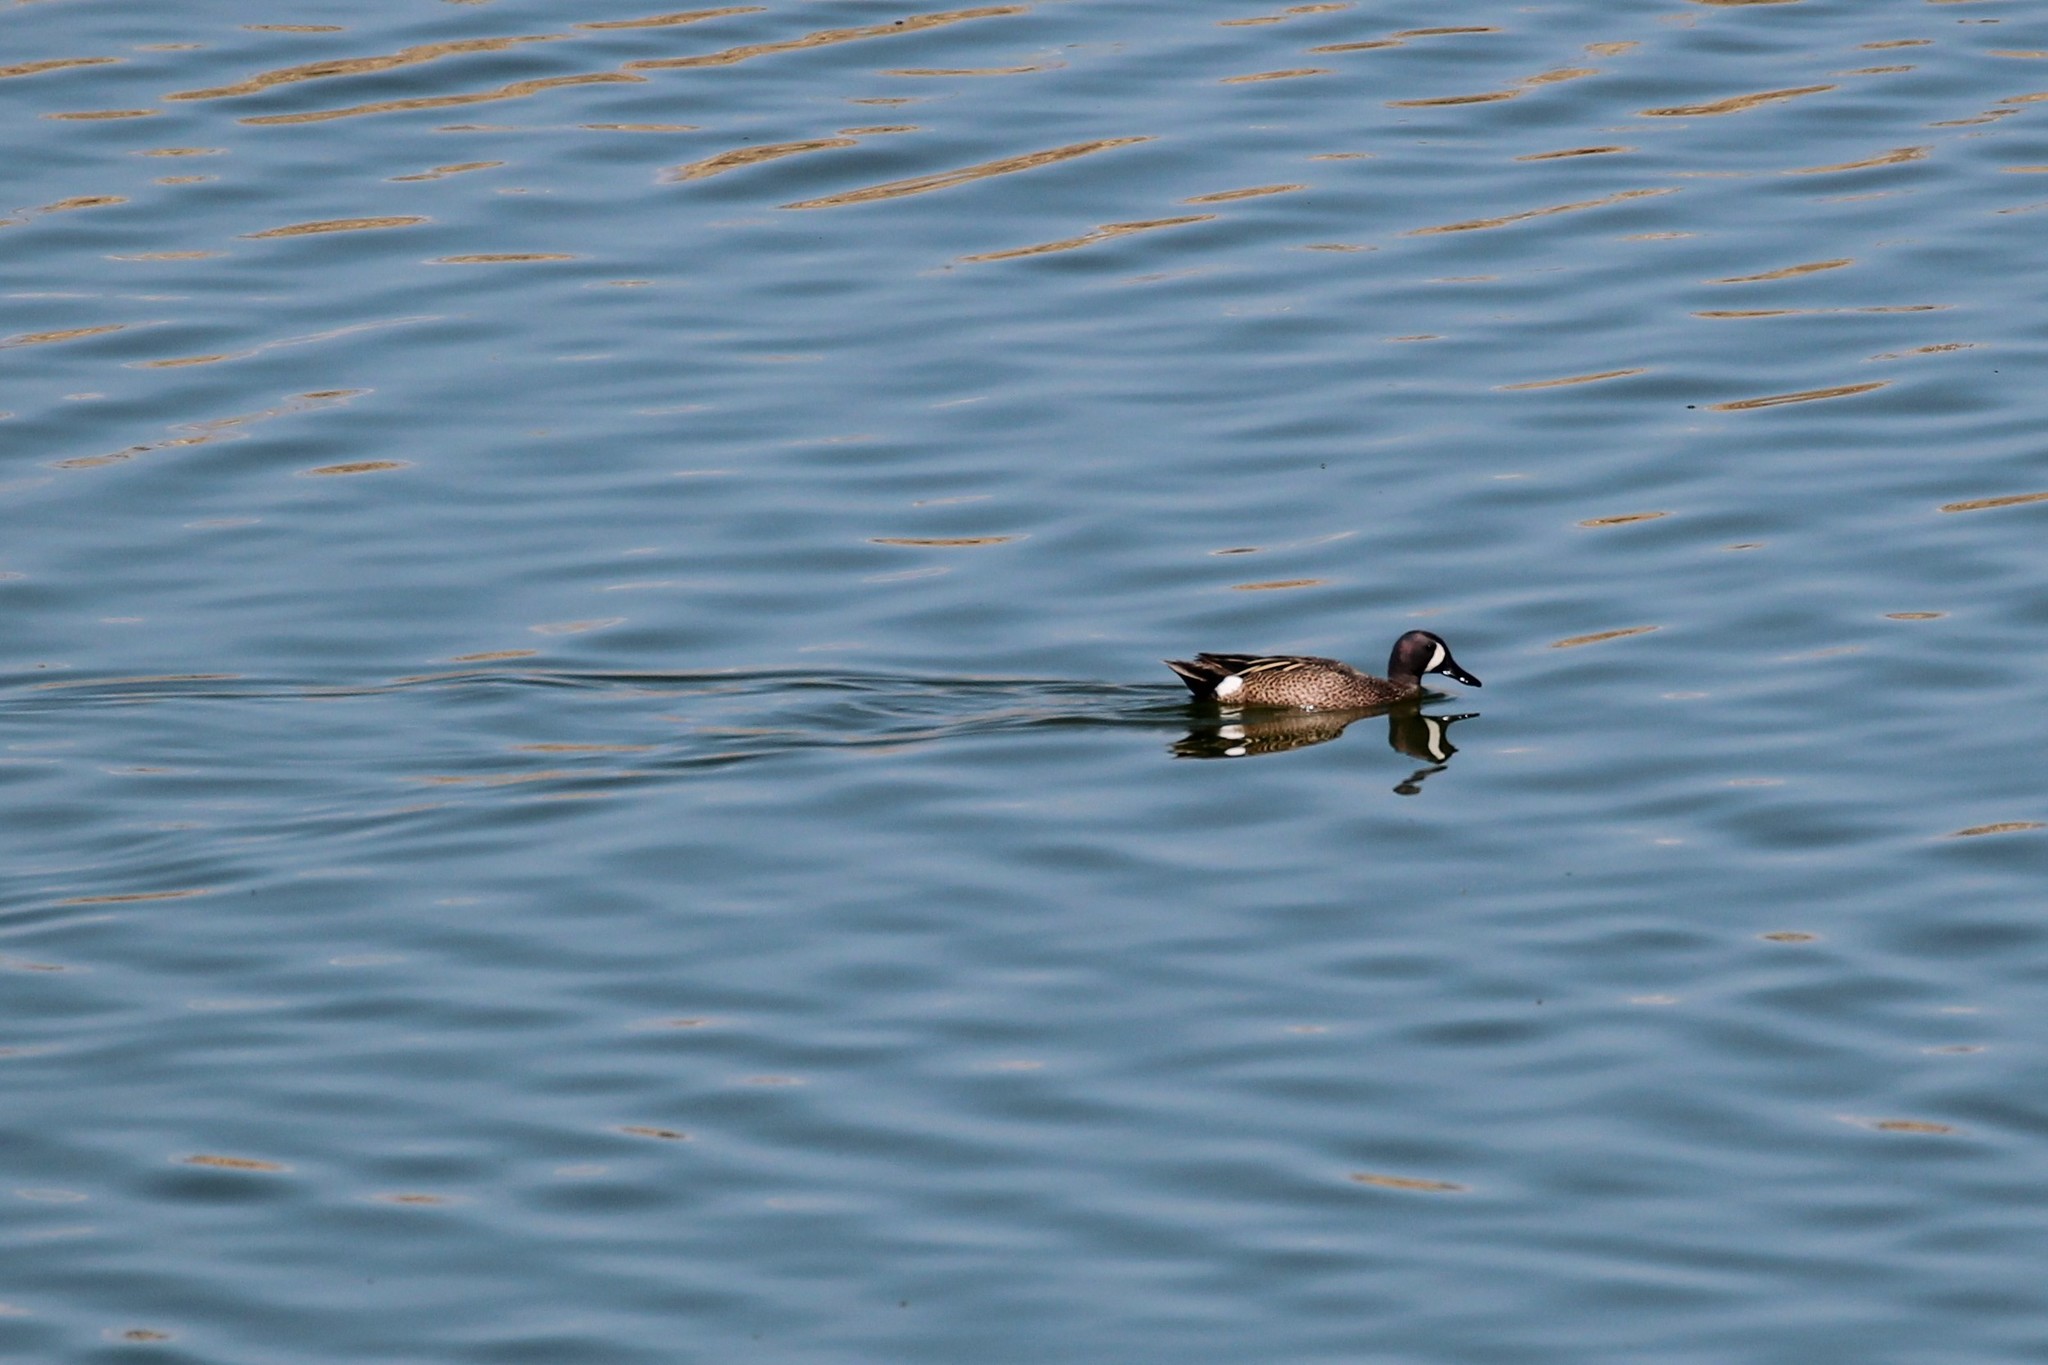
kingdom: Animalia
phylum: Chordata
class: Aves
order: Anseriformes
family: Anatidae
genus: Spatula
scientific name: Spatula discors
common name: Blue-winged teal
